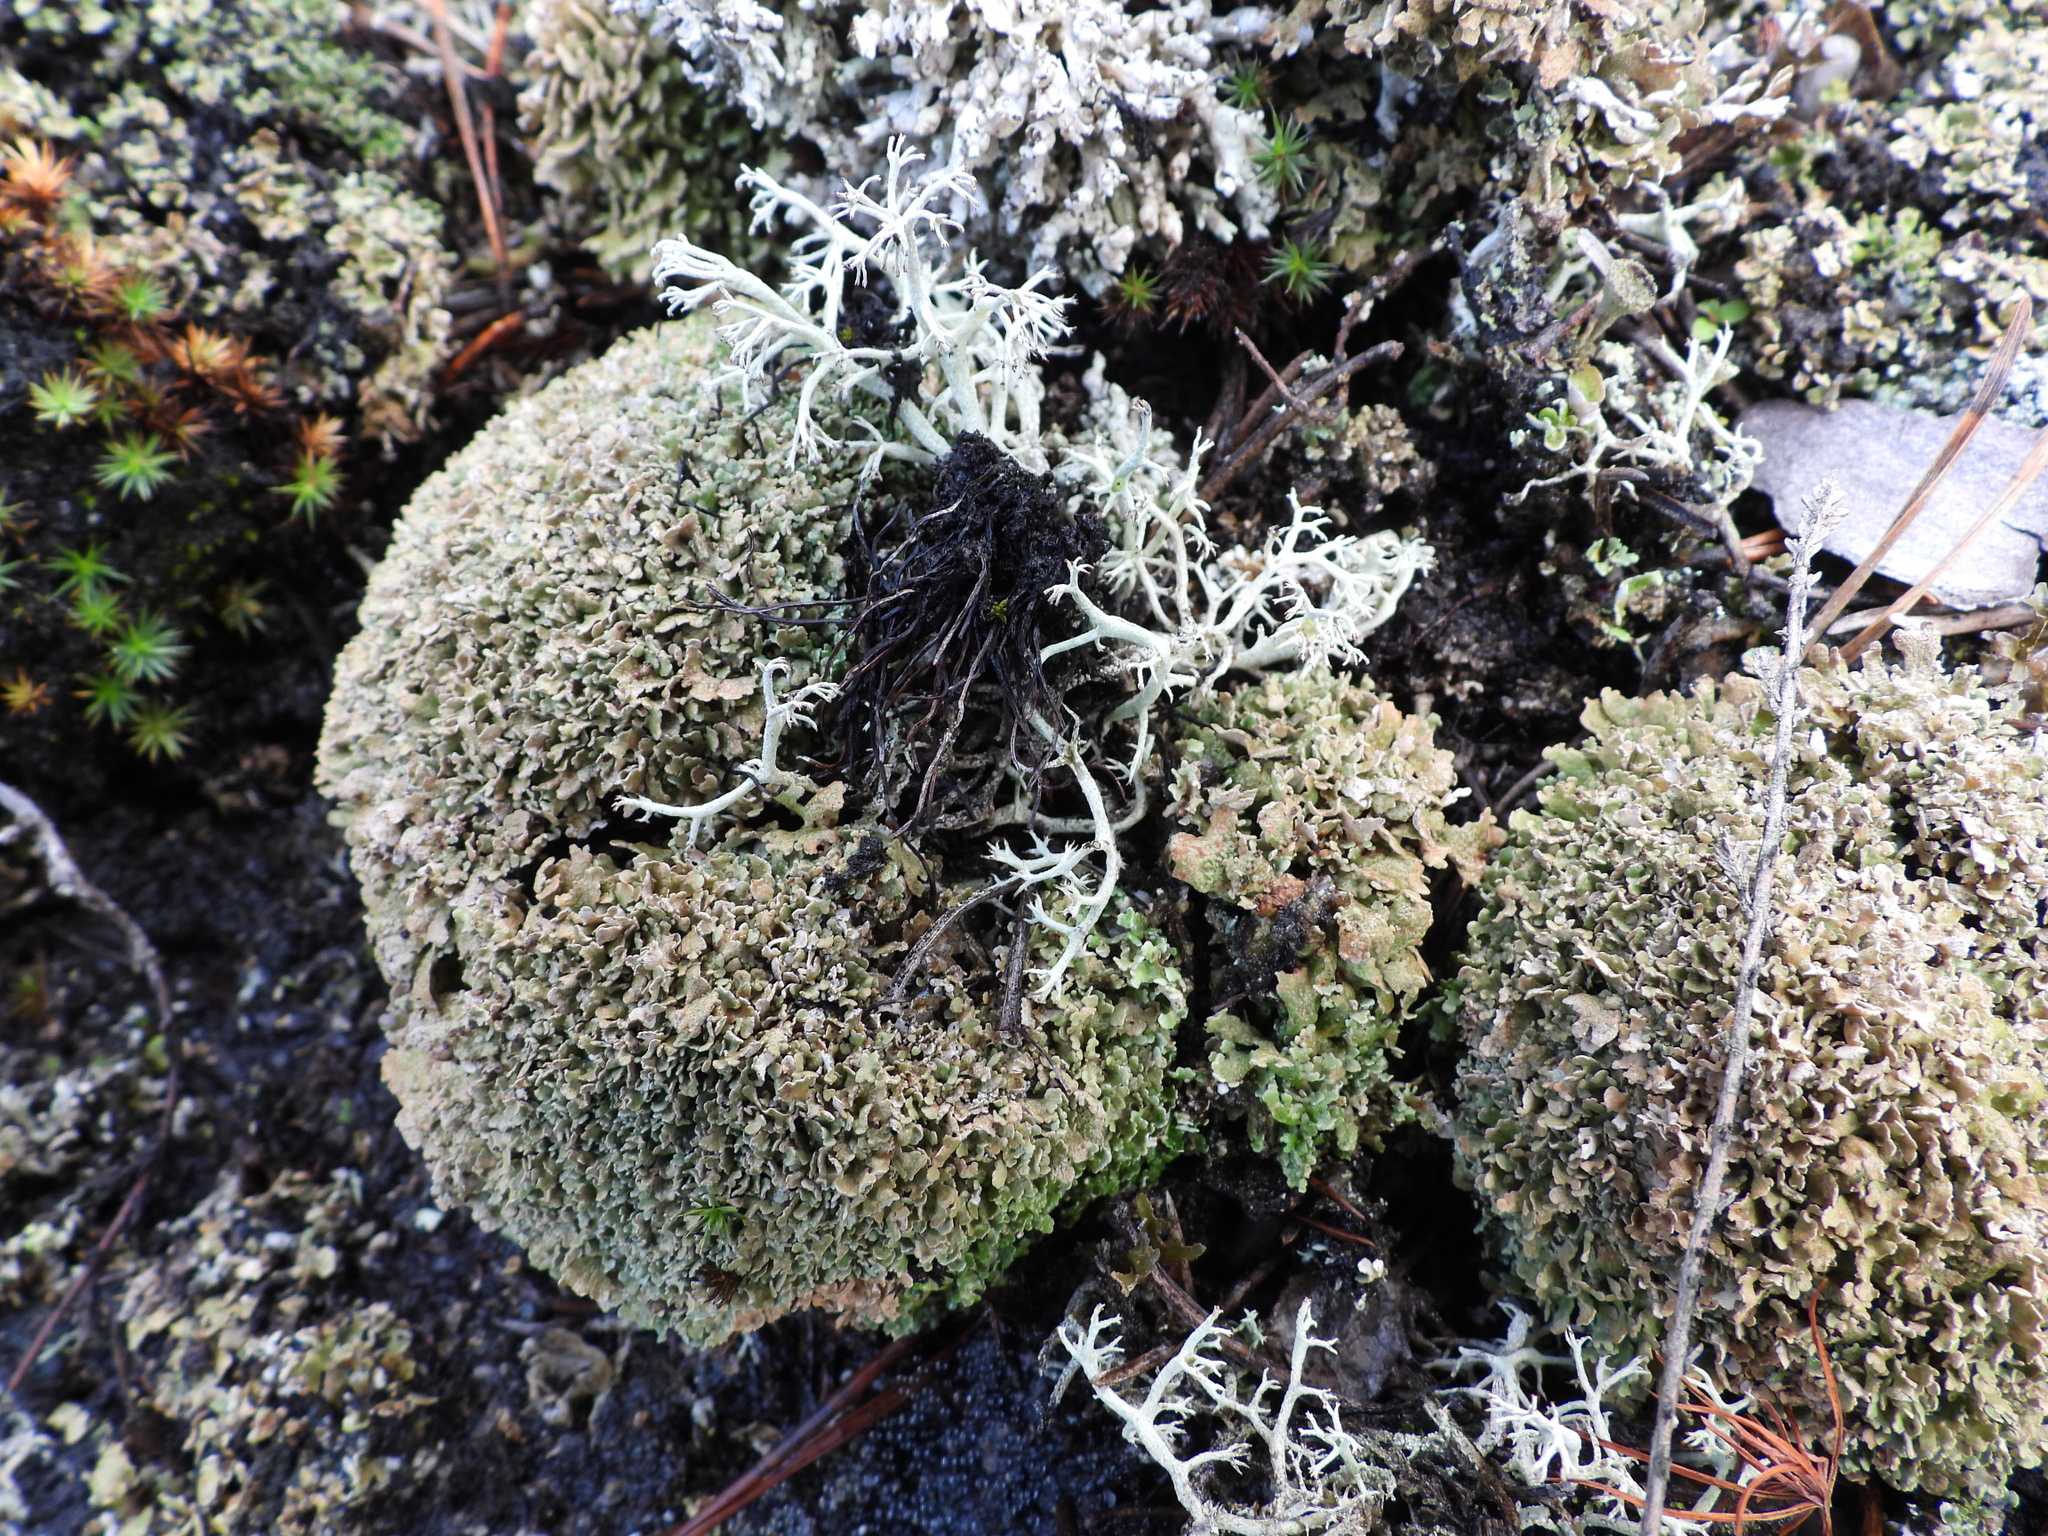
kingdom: Fungi
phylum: Ascomycota
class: Lecanoromycetes
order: Lecanorales
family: Cladoniaceae
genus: Cladonia
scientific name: Cladonia strepsilis
